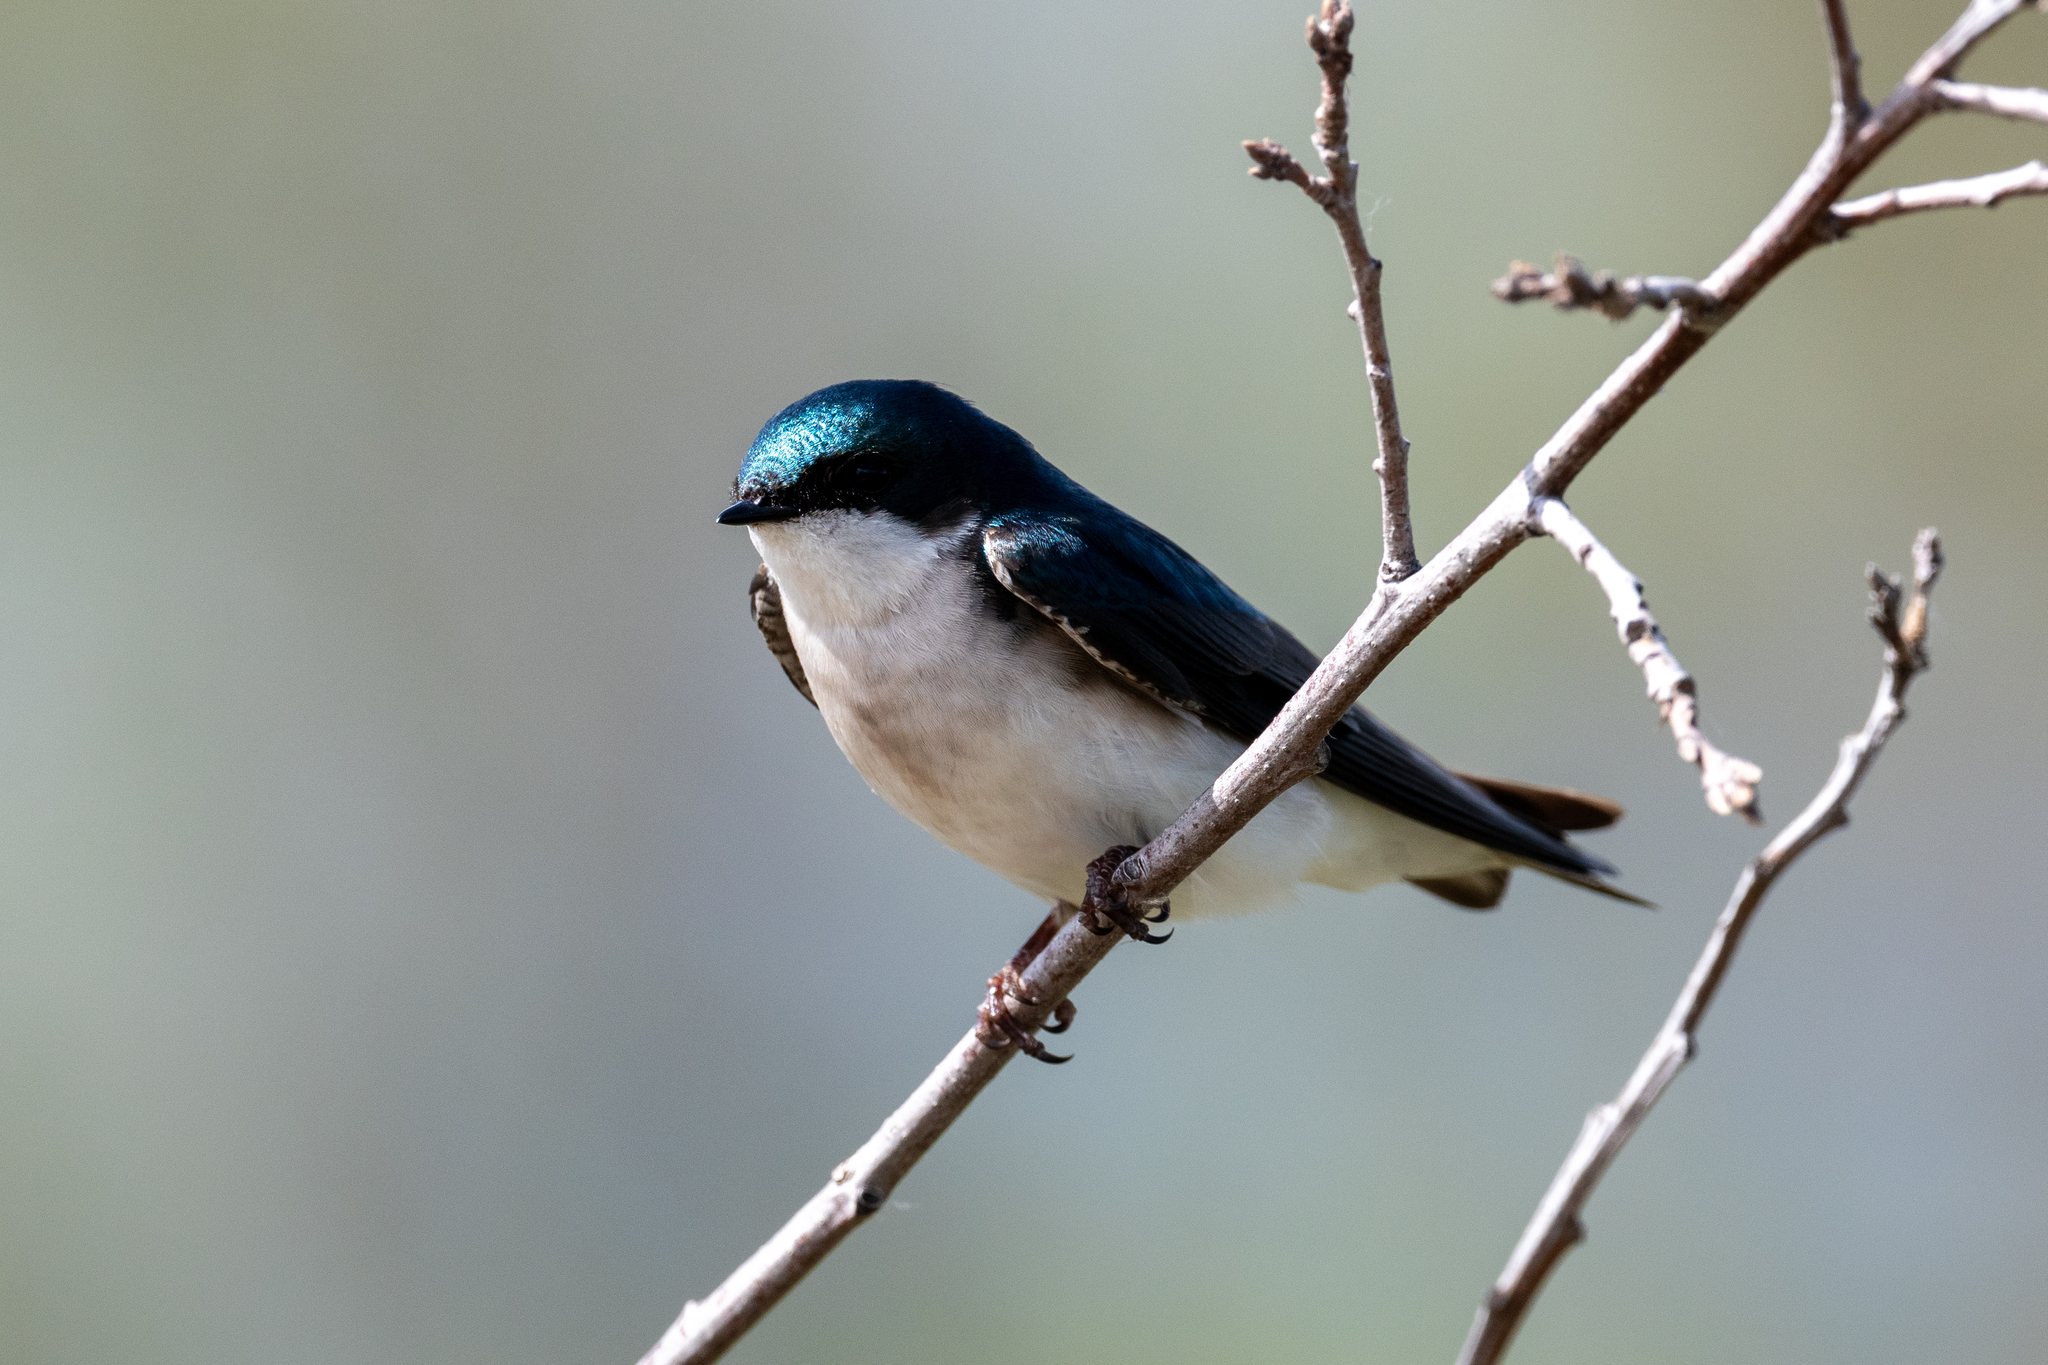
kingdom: Animalia
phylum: Chordata
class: Aves
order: Passeriformes
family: Hirundinidae
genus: Tachycineta
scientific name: Tachycineta bicolor
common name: Tree swallow
